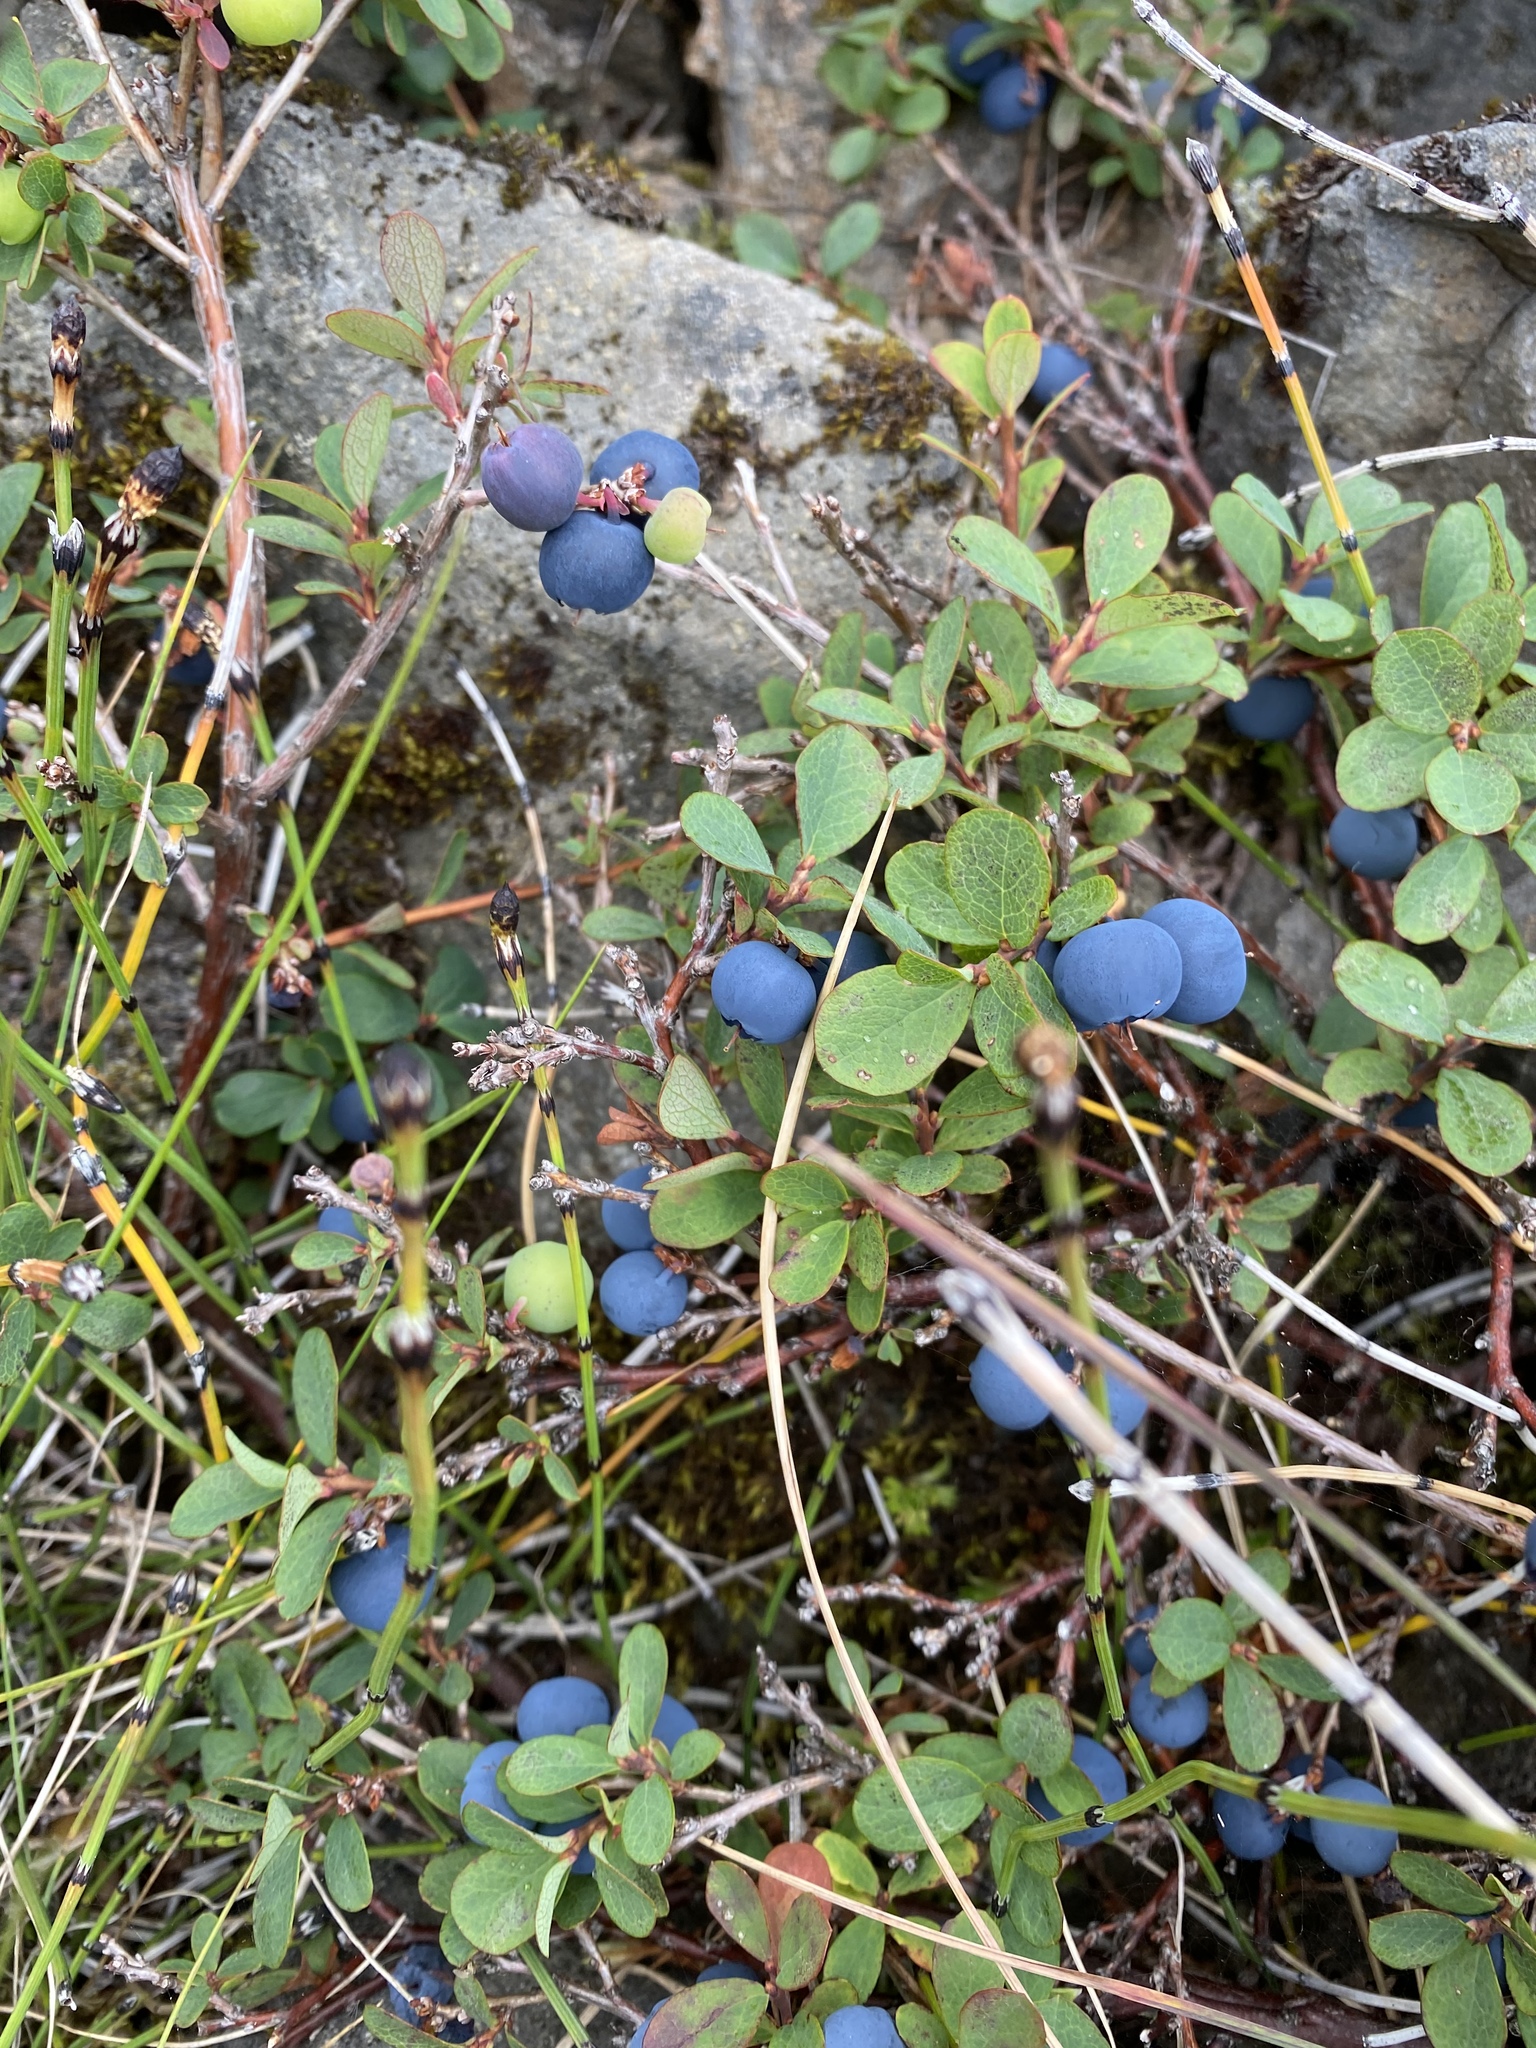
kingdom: Plantae
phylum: Tracheophyta
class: Magnoliopsida
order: Ericales
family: Ericaceae
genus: Vaccinium
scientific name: Vaccinium uliginosum
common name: Bog bilberry
